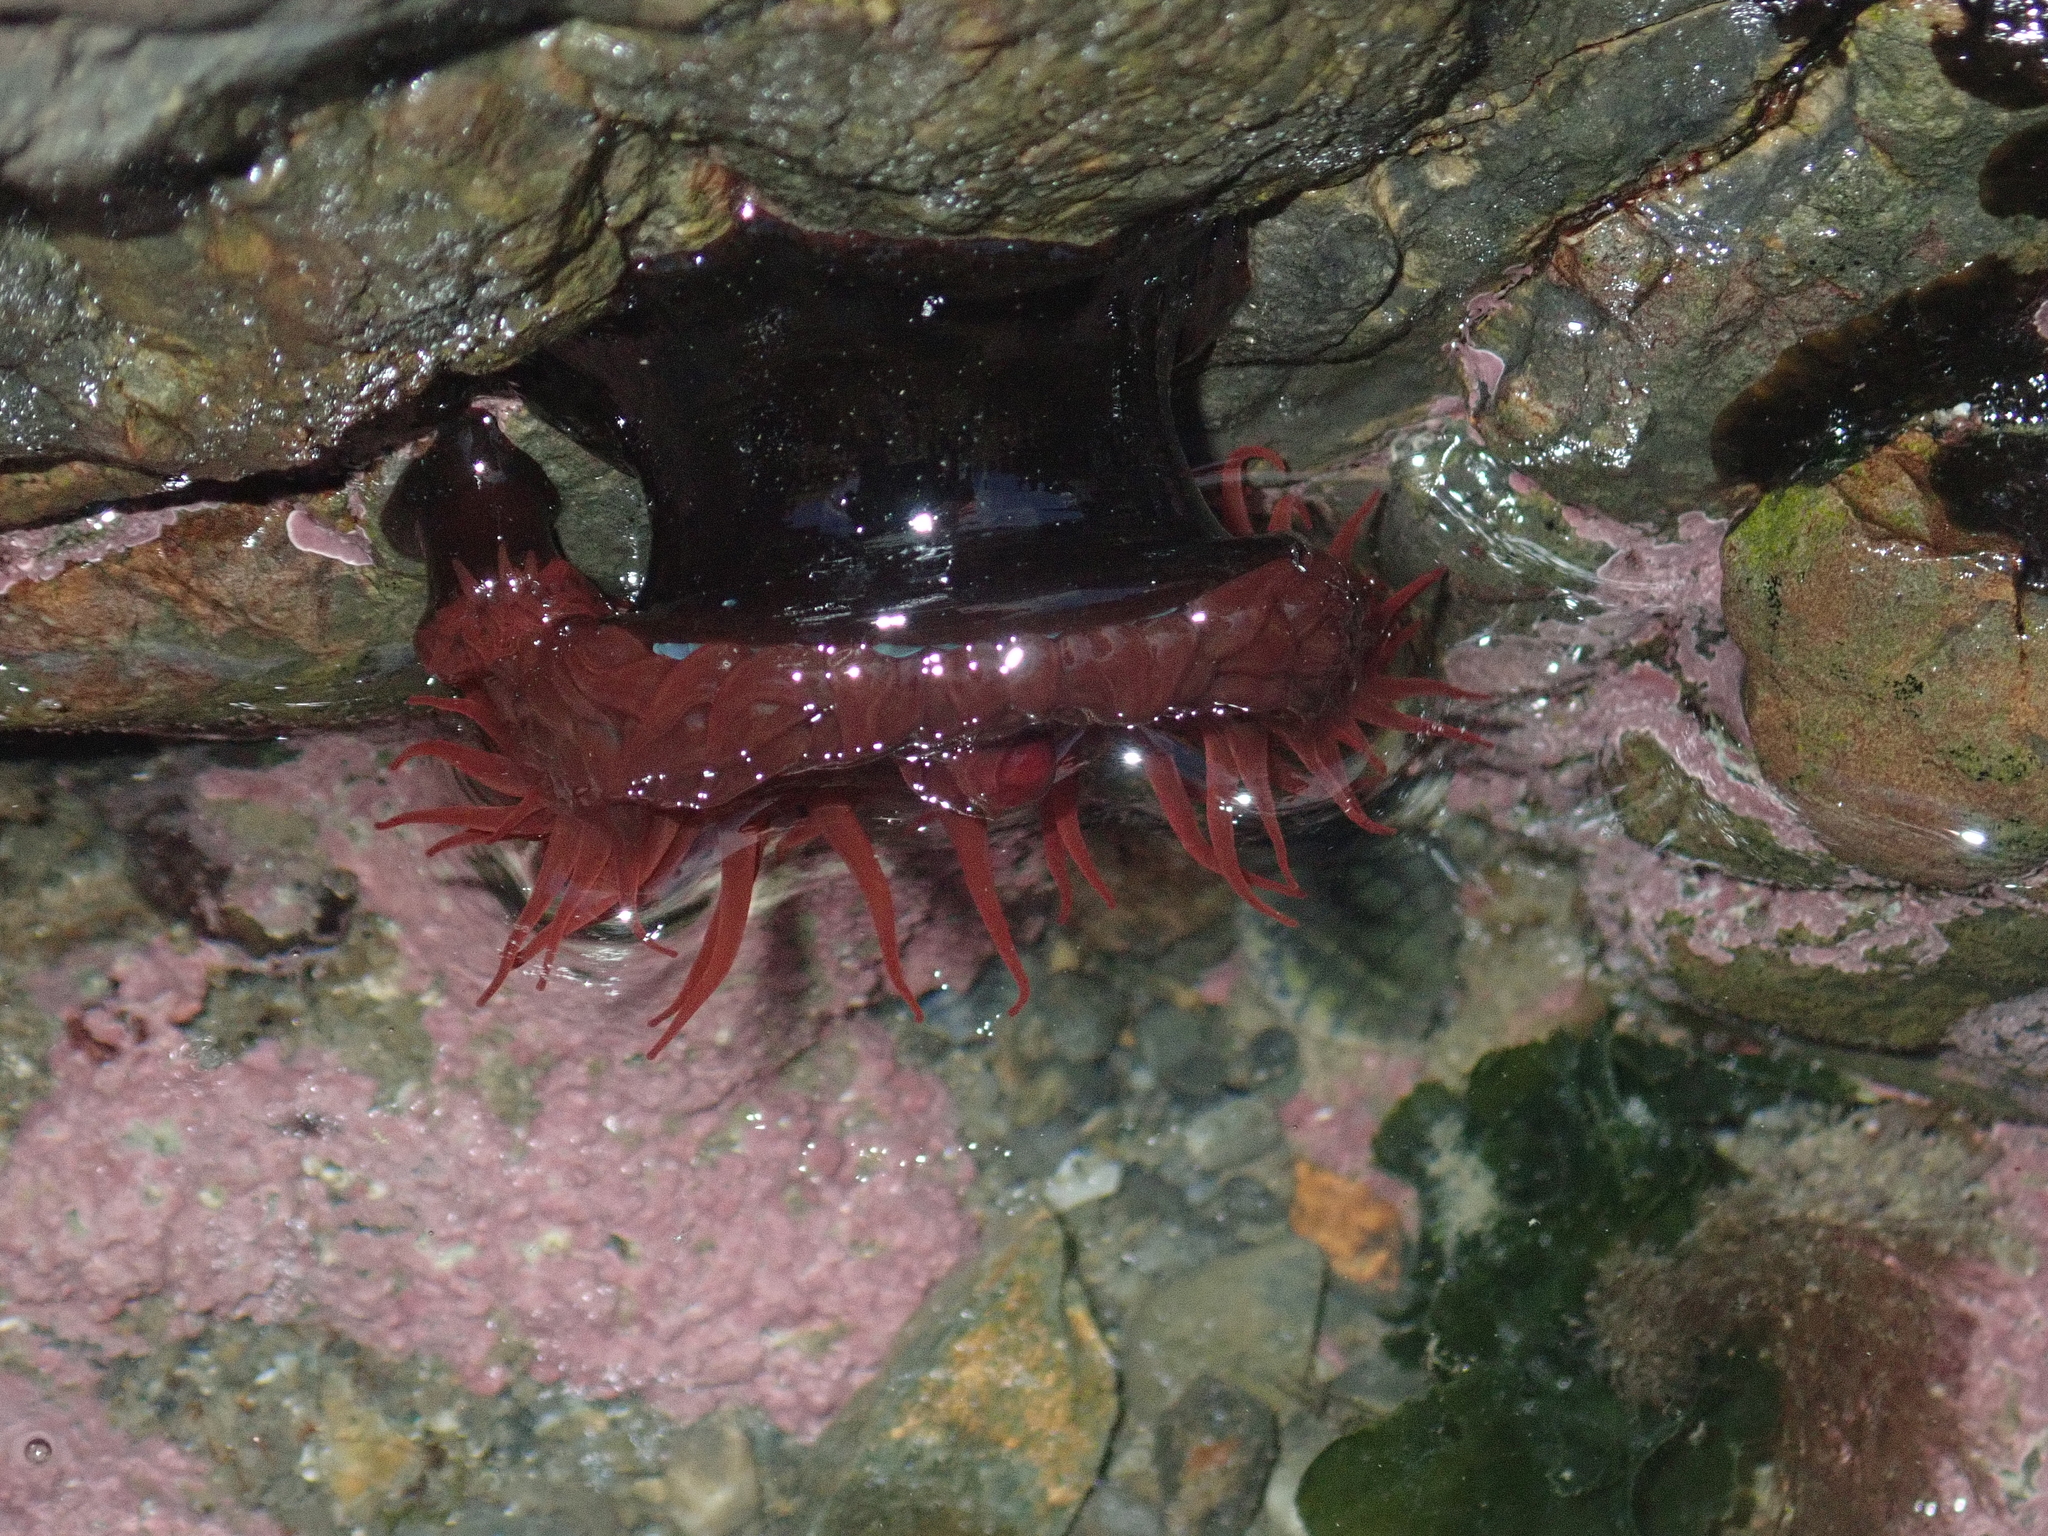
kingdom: Animalia
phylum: Cnidaria
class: Anthozoa
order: Actiniaria
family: Actiniidae
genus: Actinia
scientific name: Actinia tenebrosa
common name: Waratah anemone
